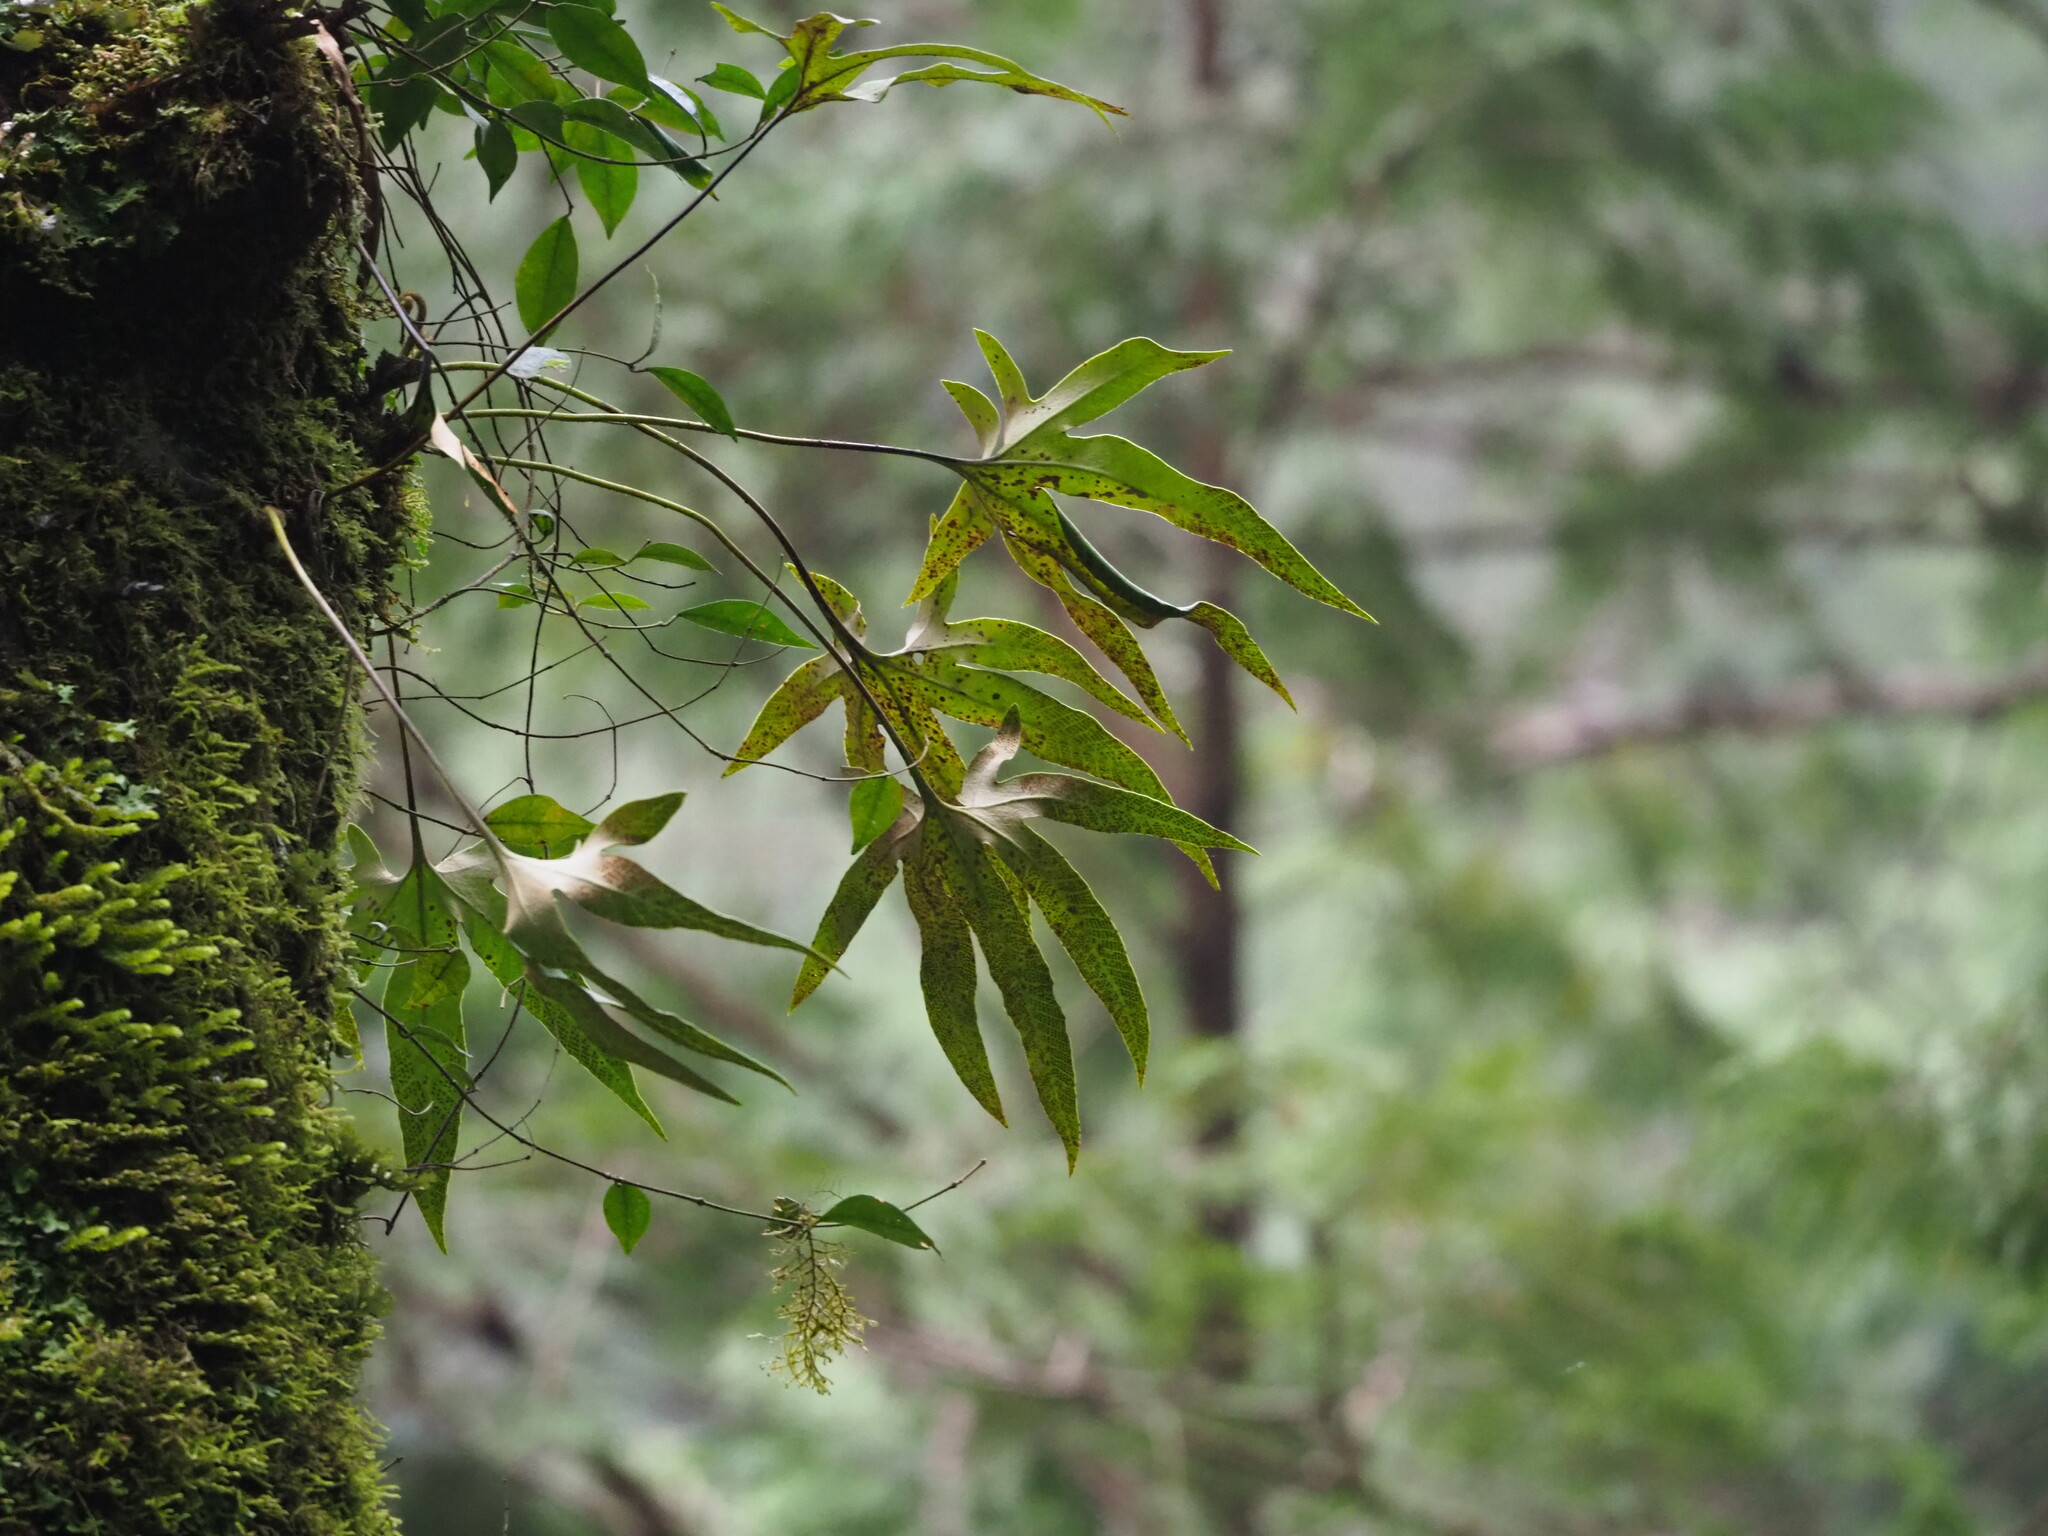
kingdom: Plantae
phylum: Tracheophyta
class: Polypodiopsida
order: Polypodiales
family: Polypodiaceae
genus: Pyrrosia
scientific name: Pyrrosia polydactyla
